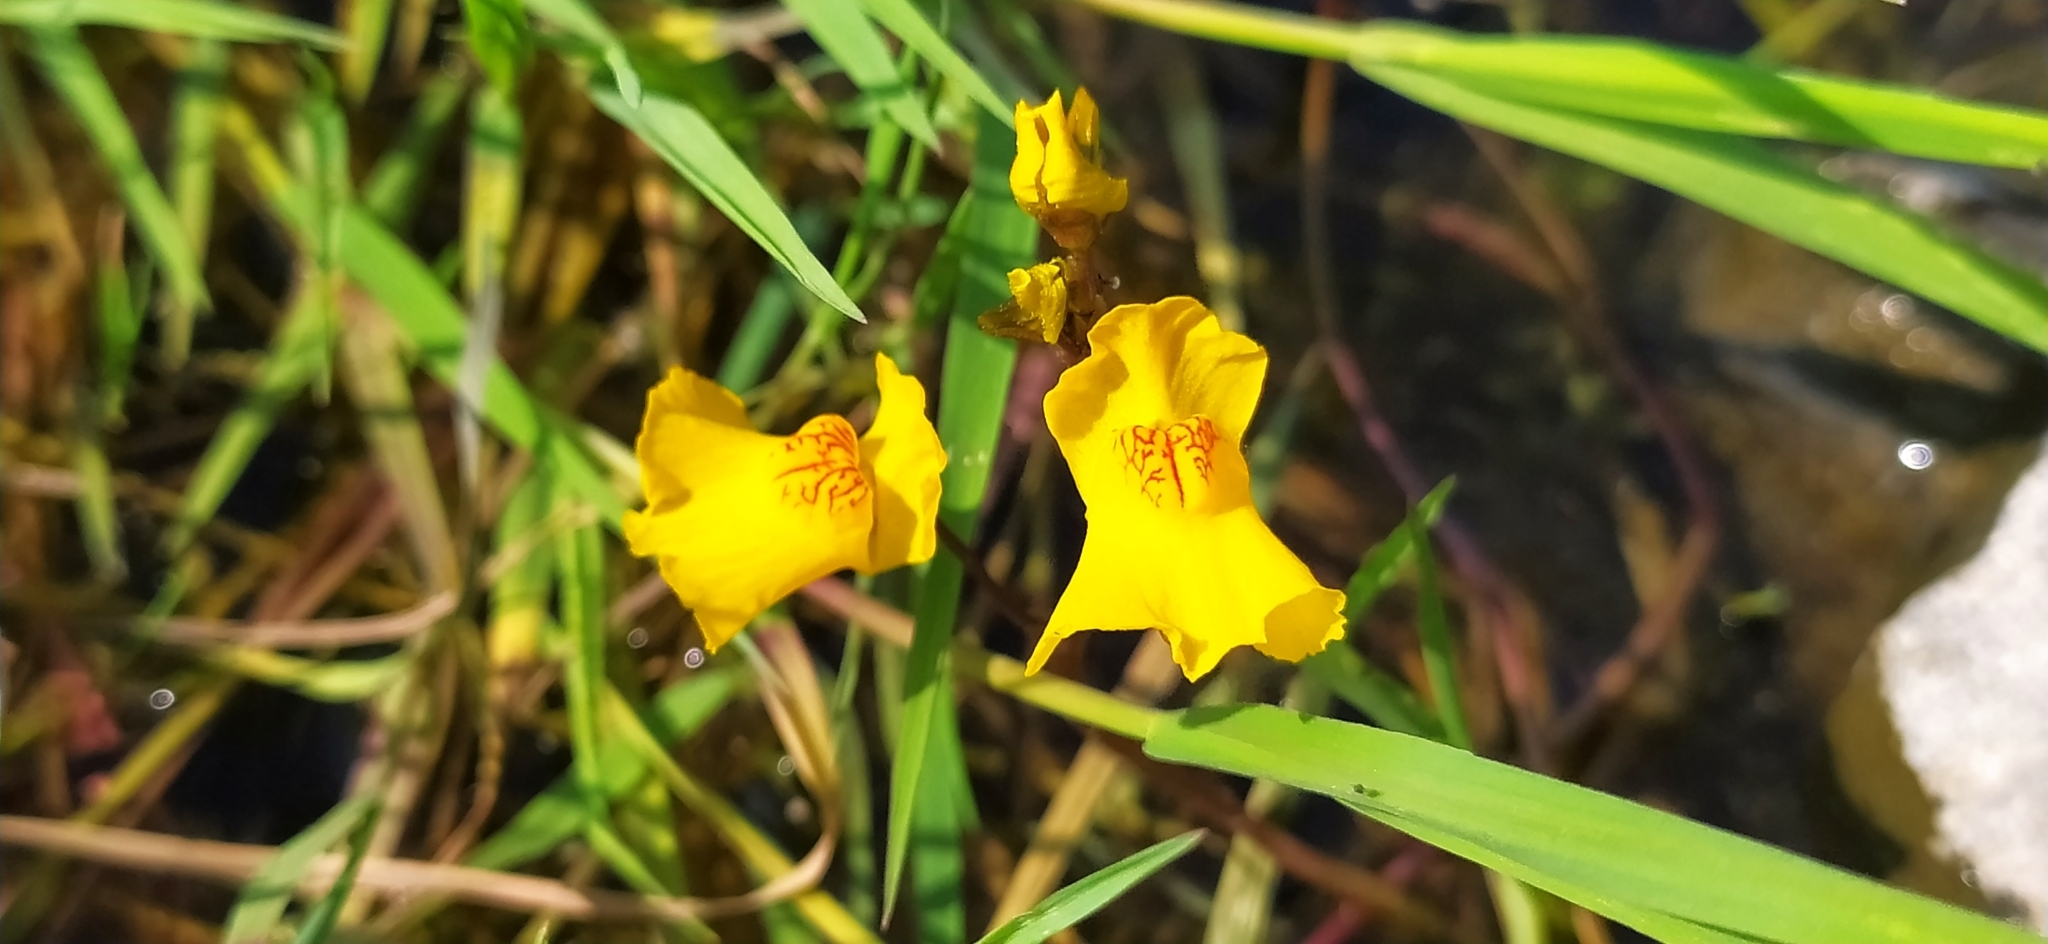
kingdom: Plantae
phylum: Tracheophyta
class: Magnoliopsida
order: Lamiales
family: Lentibulariaceae
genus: Utricularia
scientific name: Utricularia vulgaris
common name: Greater bladderwort
